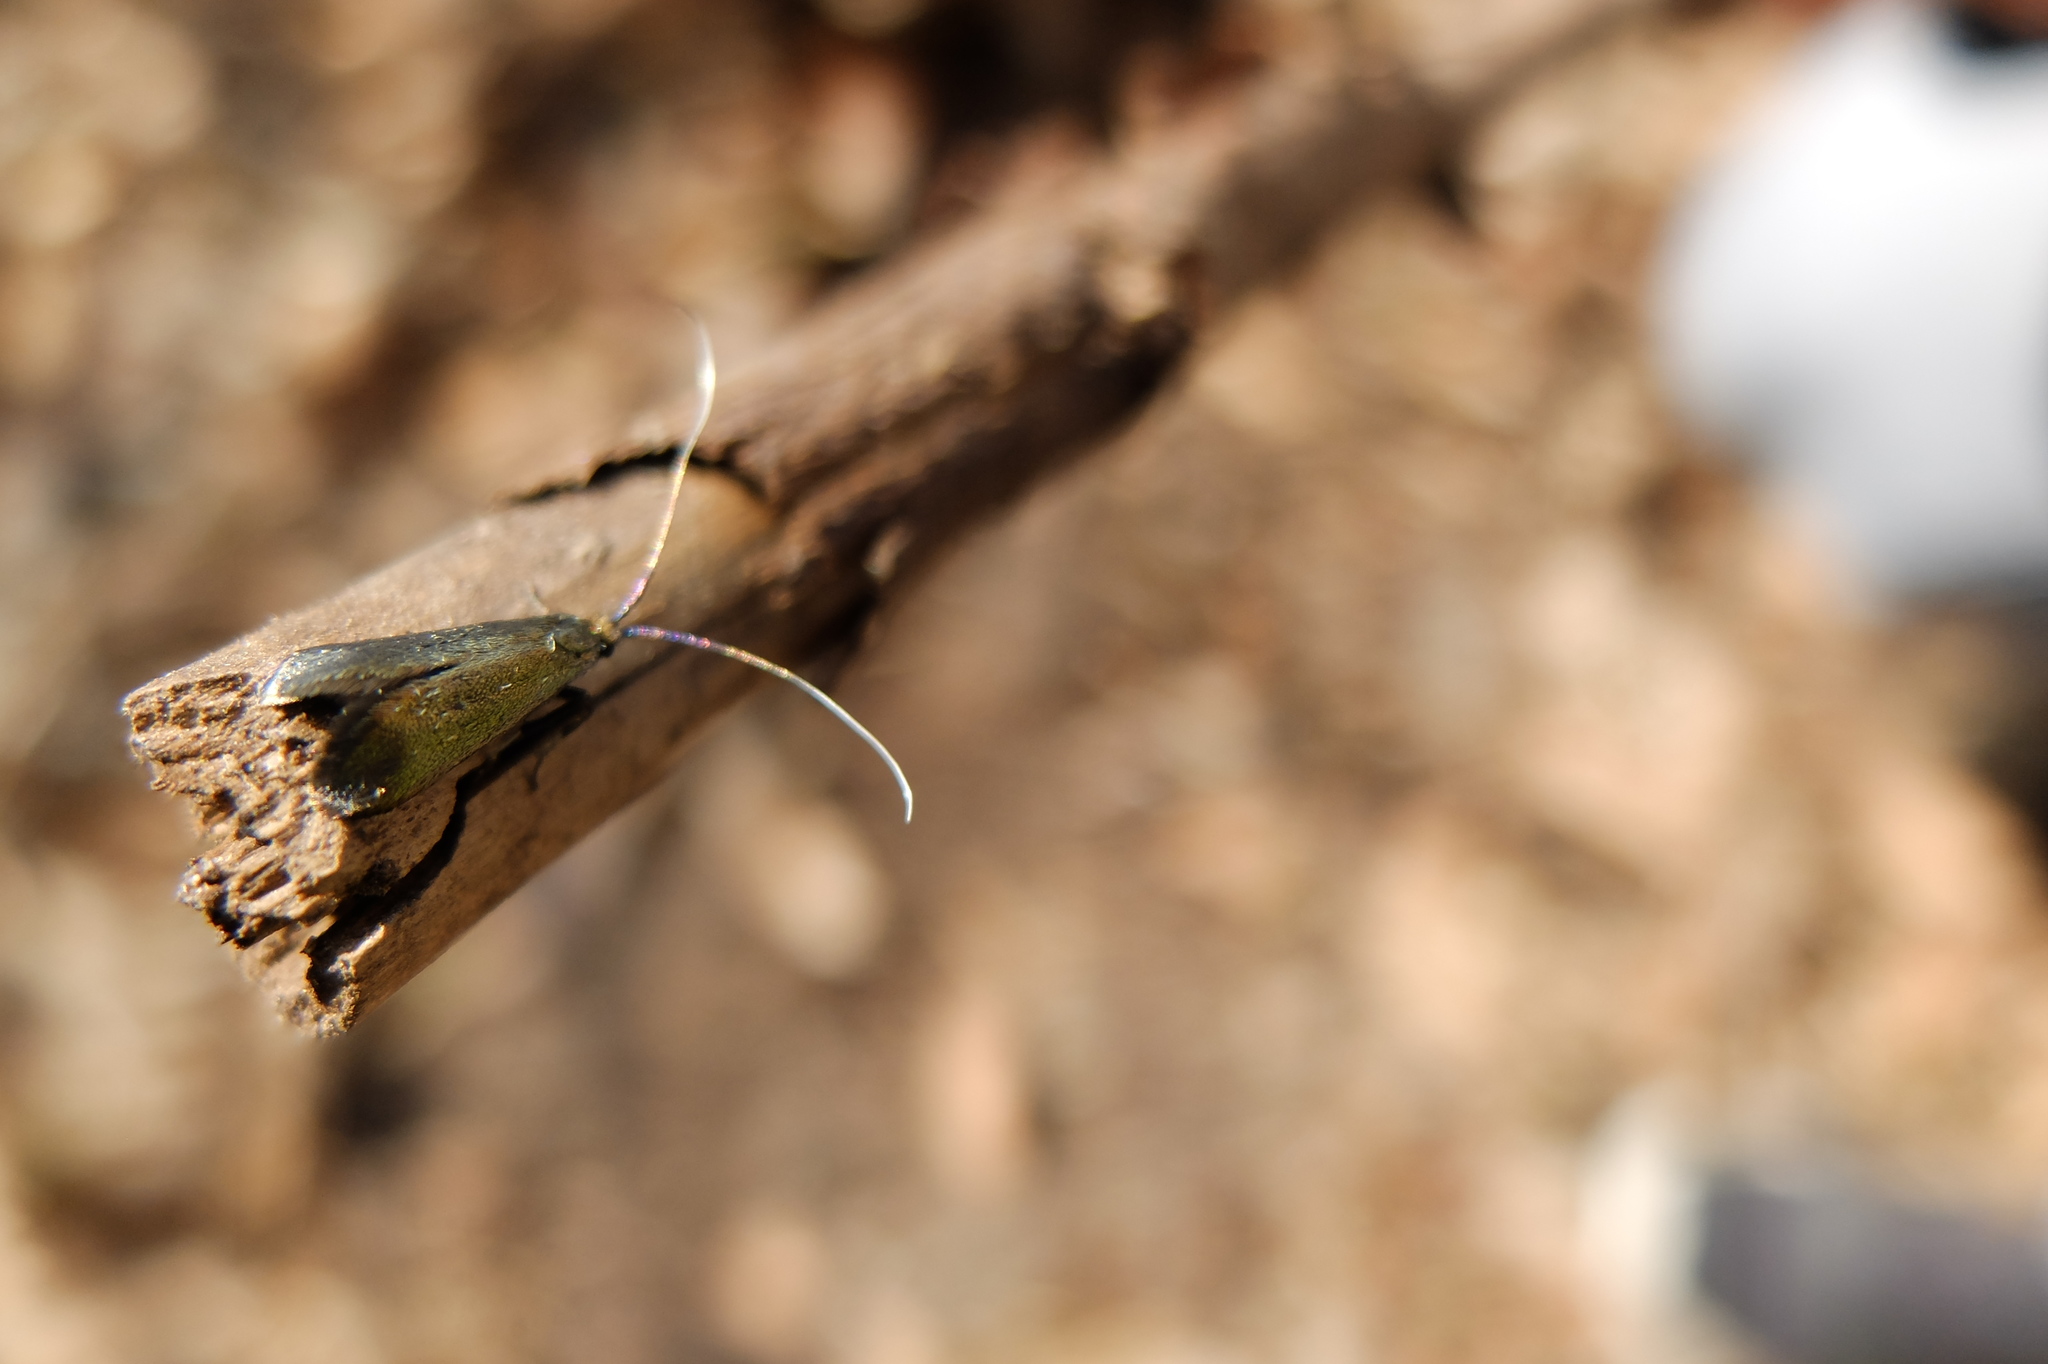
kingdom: Animalia
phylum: Arthropoda
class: Insecta
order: Lepidoptera
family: Adelidae
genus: Adela
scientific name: Adela viridella
